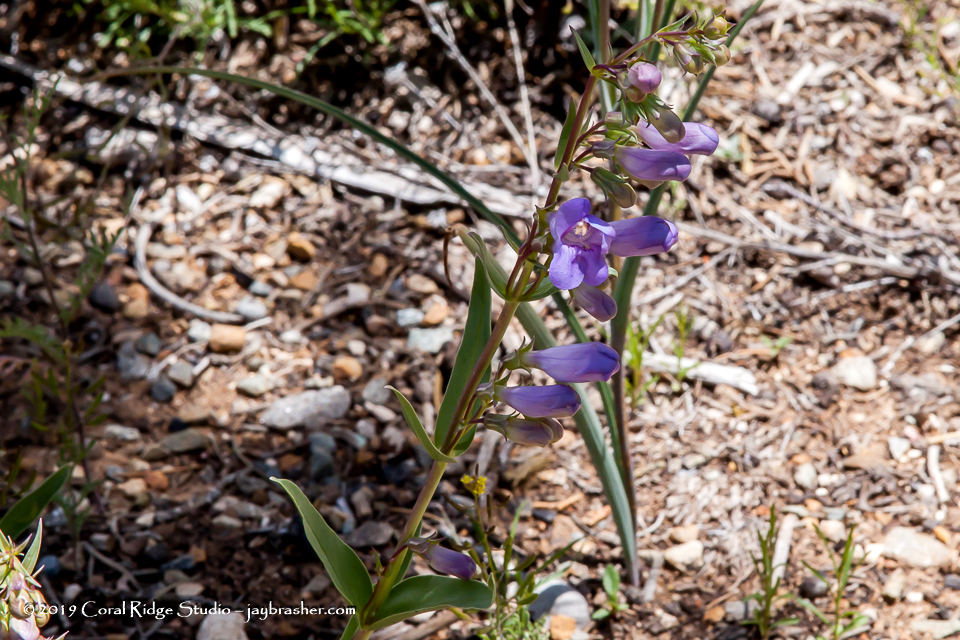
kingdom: Plantae
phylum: Tracheophyta
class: Magnoliopsida
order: Lamiales
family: Plantaginaceae
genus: Penstemon
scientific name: Penstemon lentus
